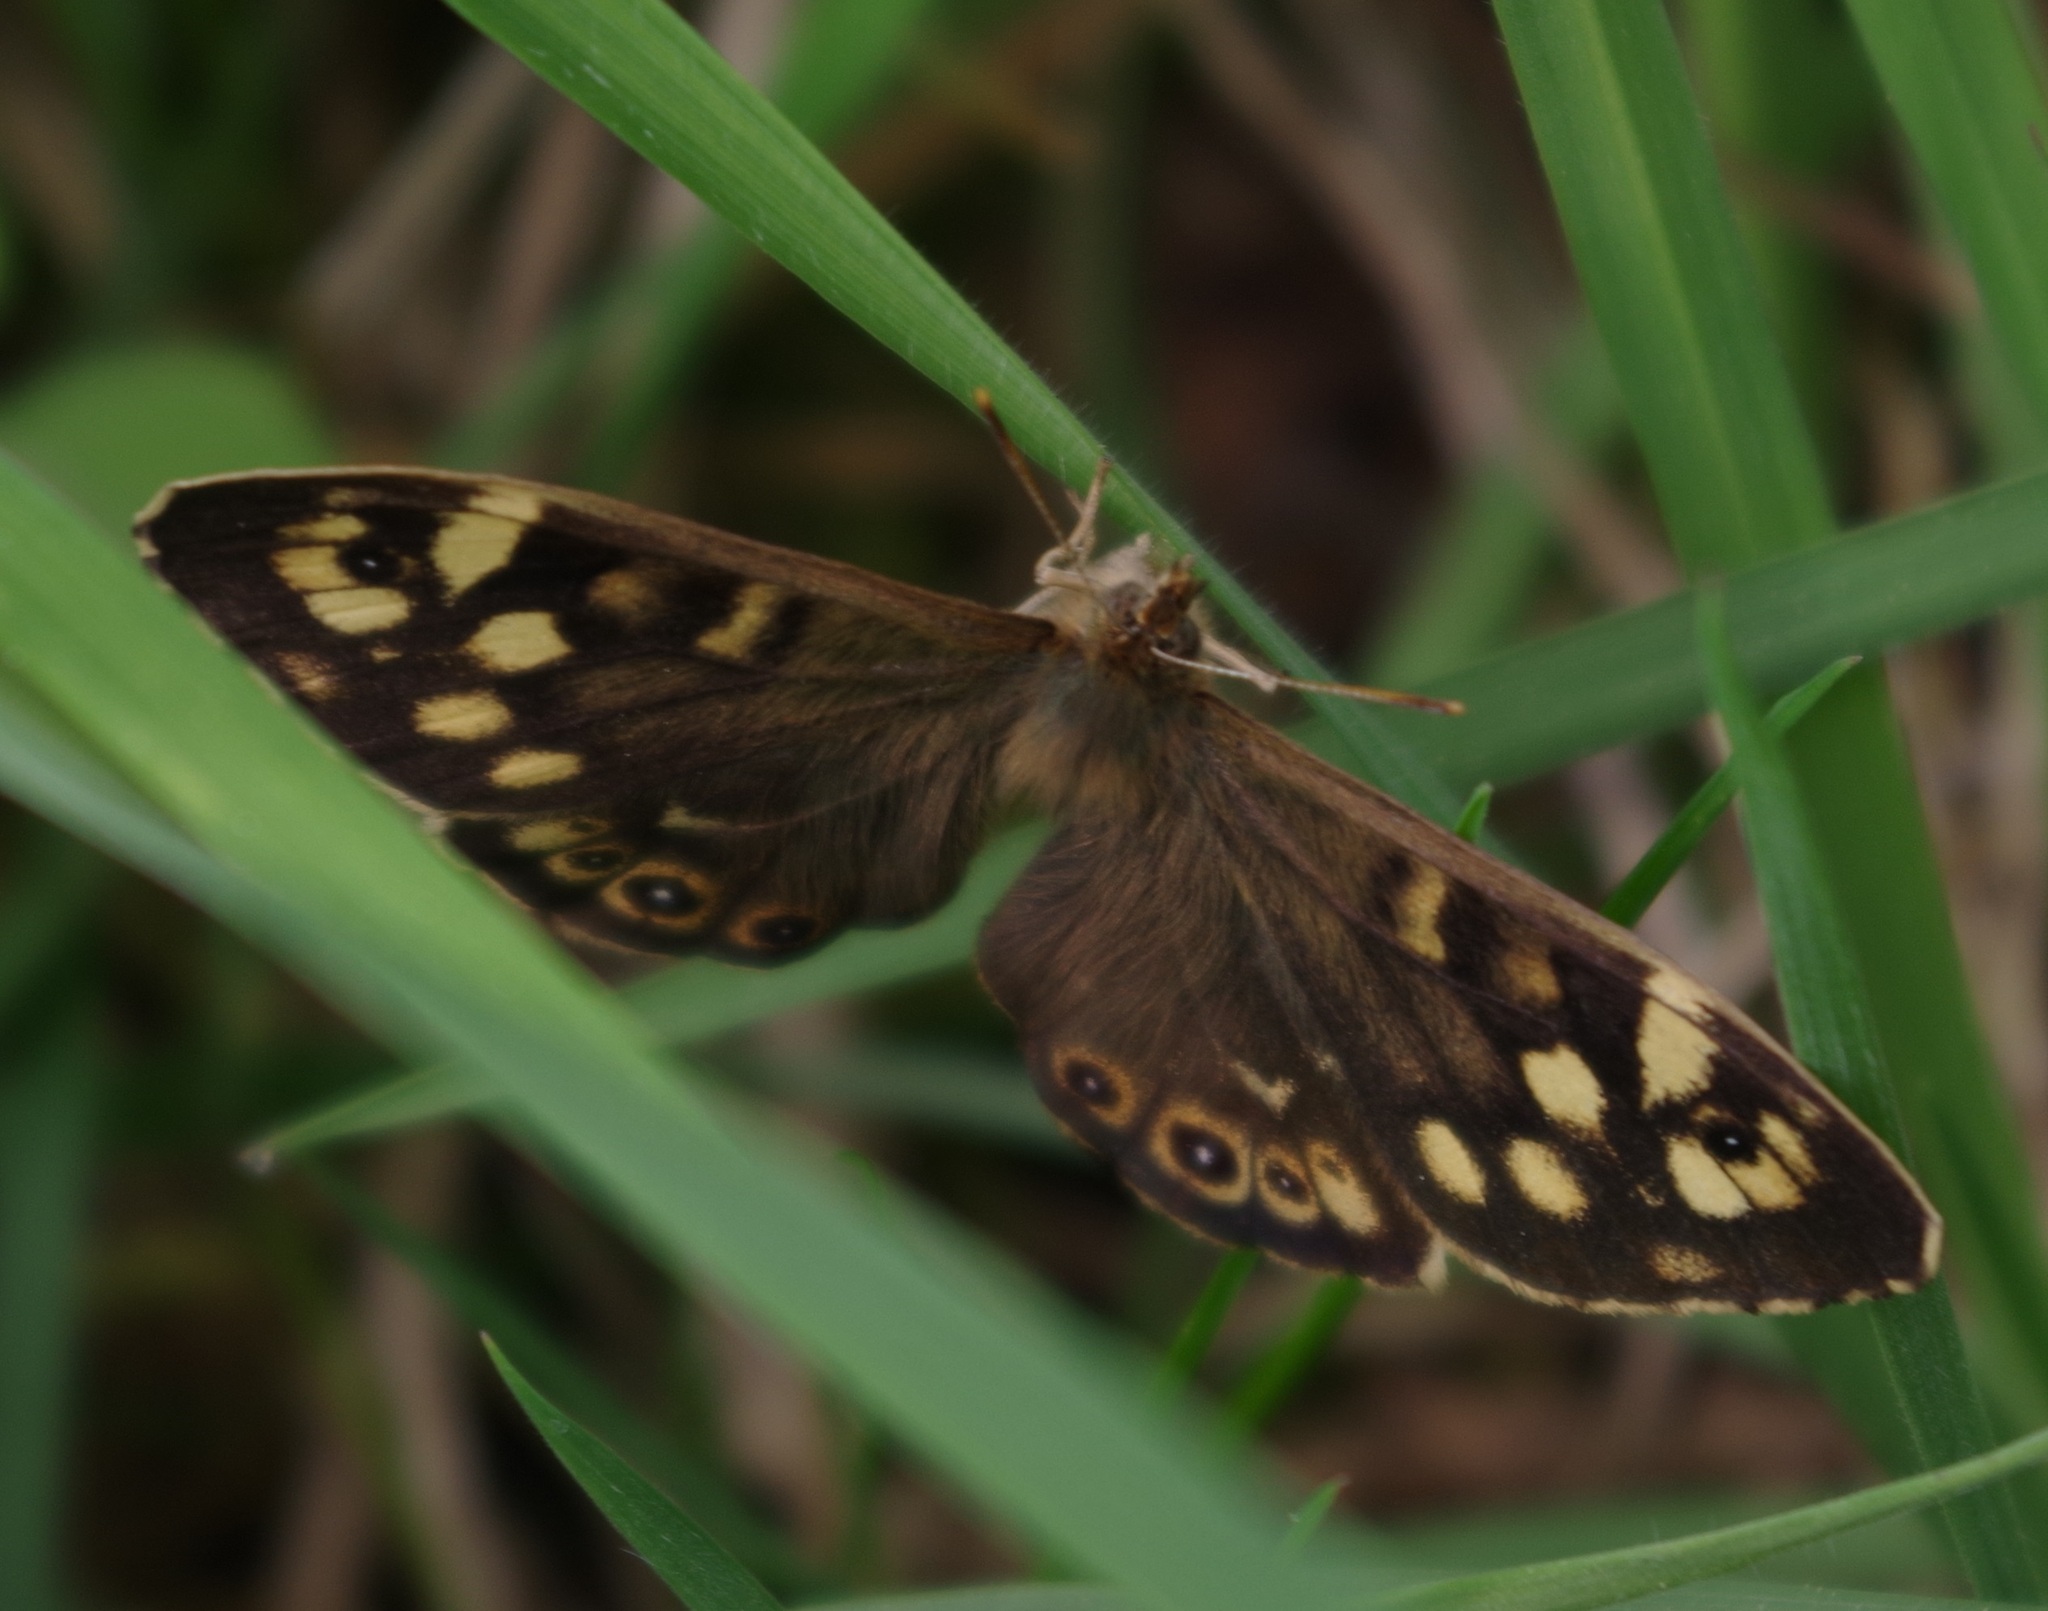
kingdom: Animalia
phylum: Arthropoda
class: Insecta
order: Lepidoptera
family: Nymphalidae
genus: Pararge
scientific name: Pararge aegeria
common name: Speckled wood
